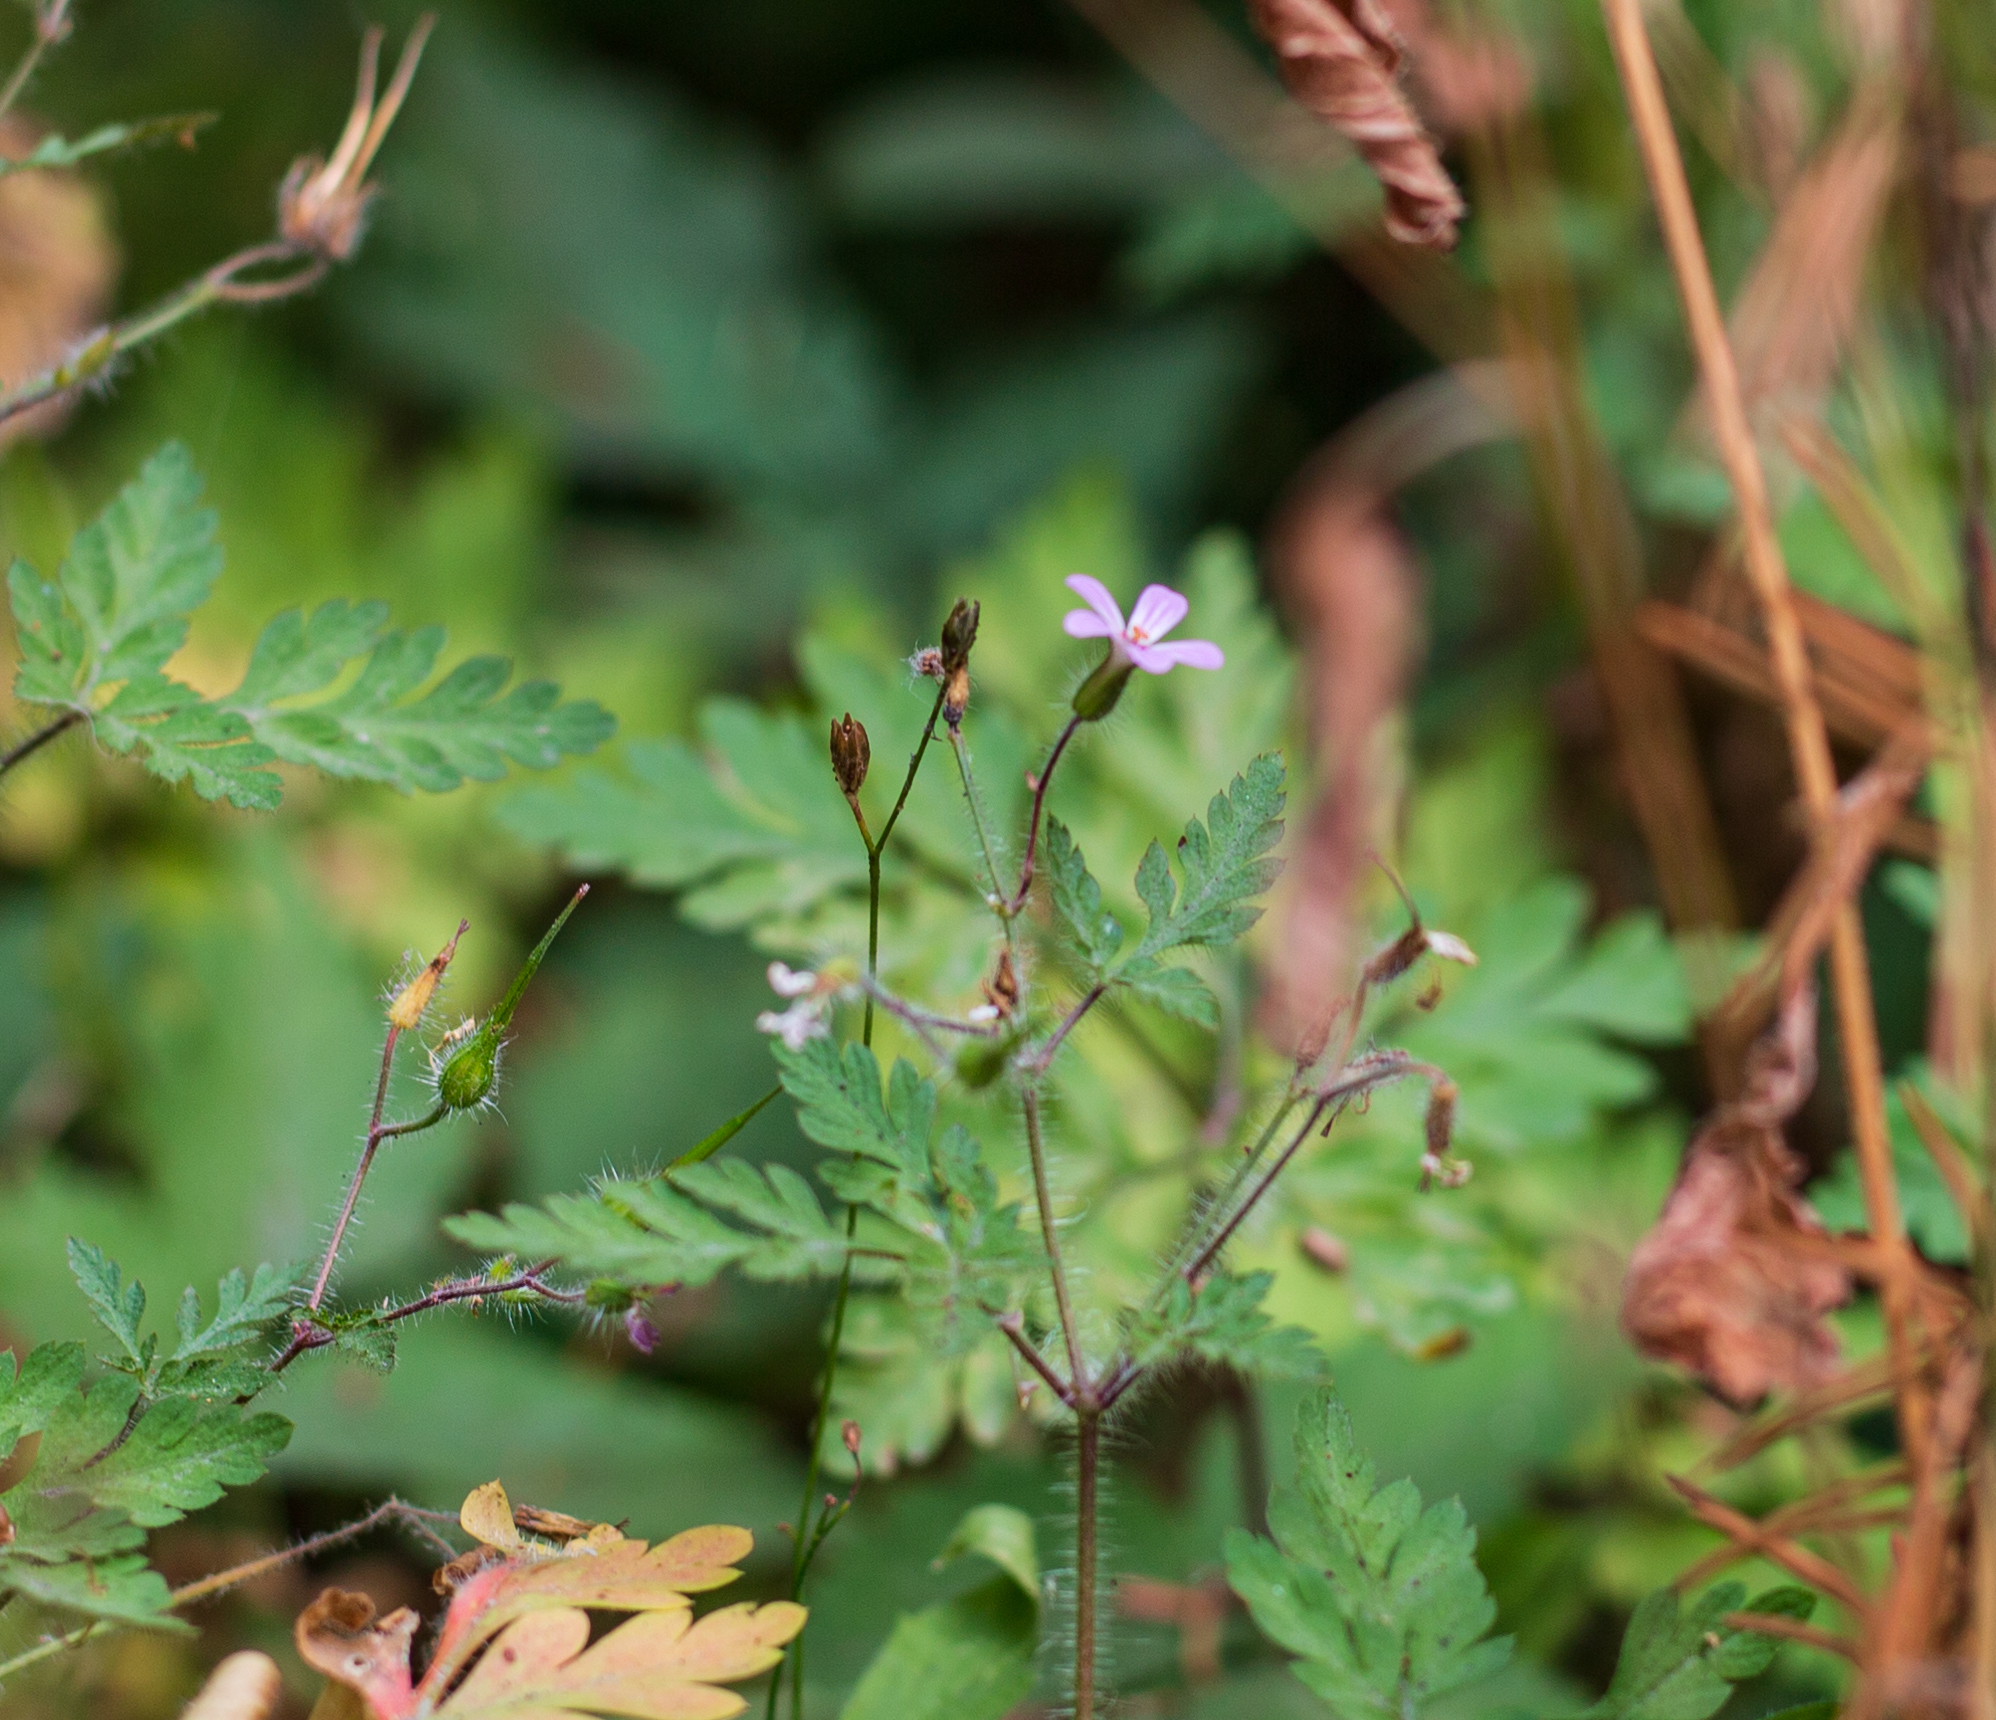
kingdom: Plantae
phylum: Tracheophyta
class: Magnoliopsida
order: Geraniales
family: Geraniaceae
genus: Geranium
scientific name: Geranium robertianum
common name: Herb-robert
